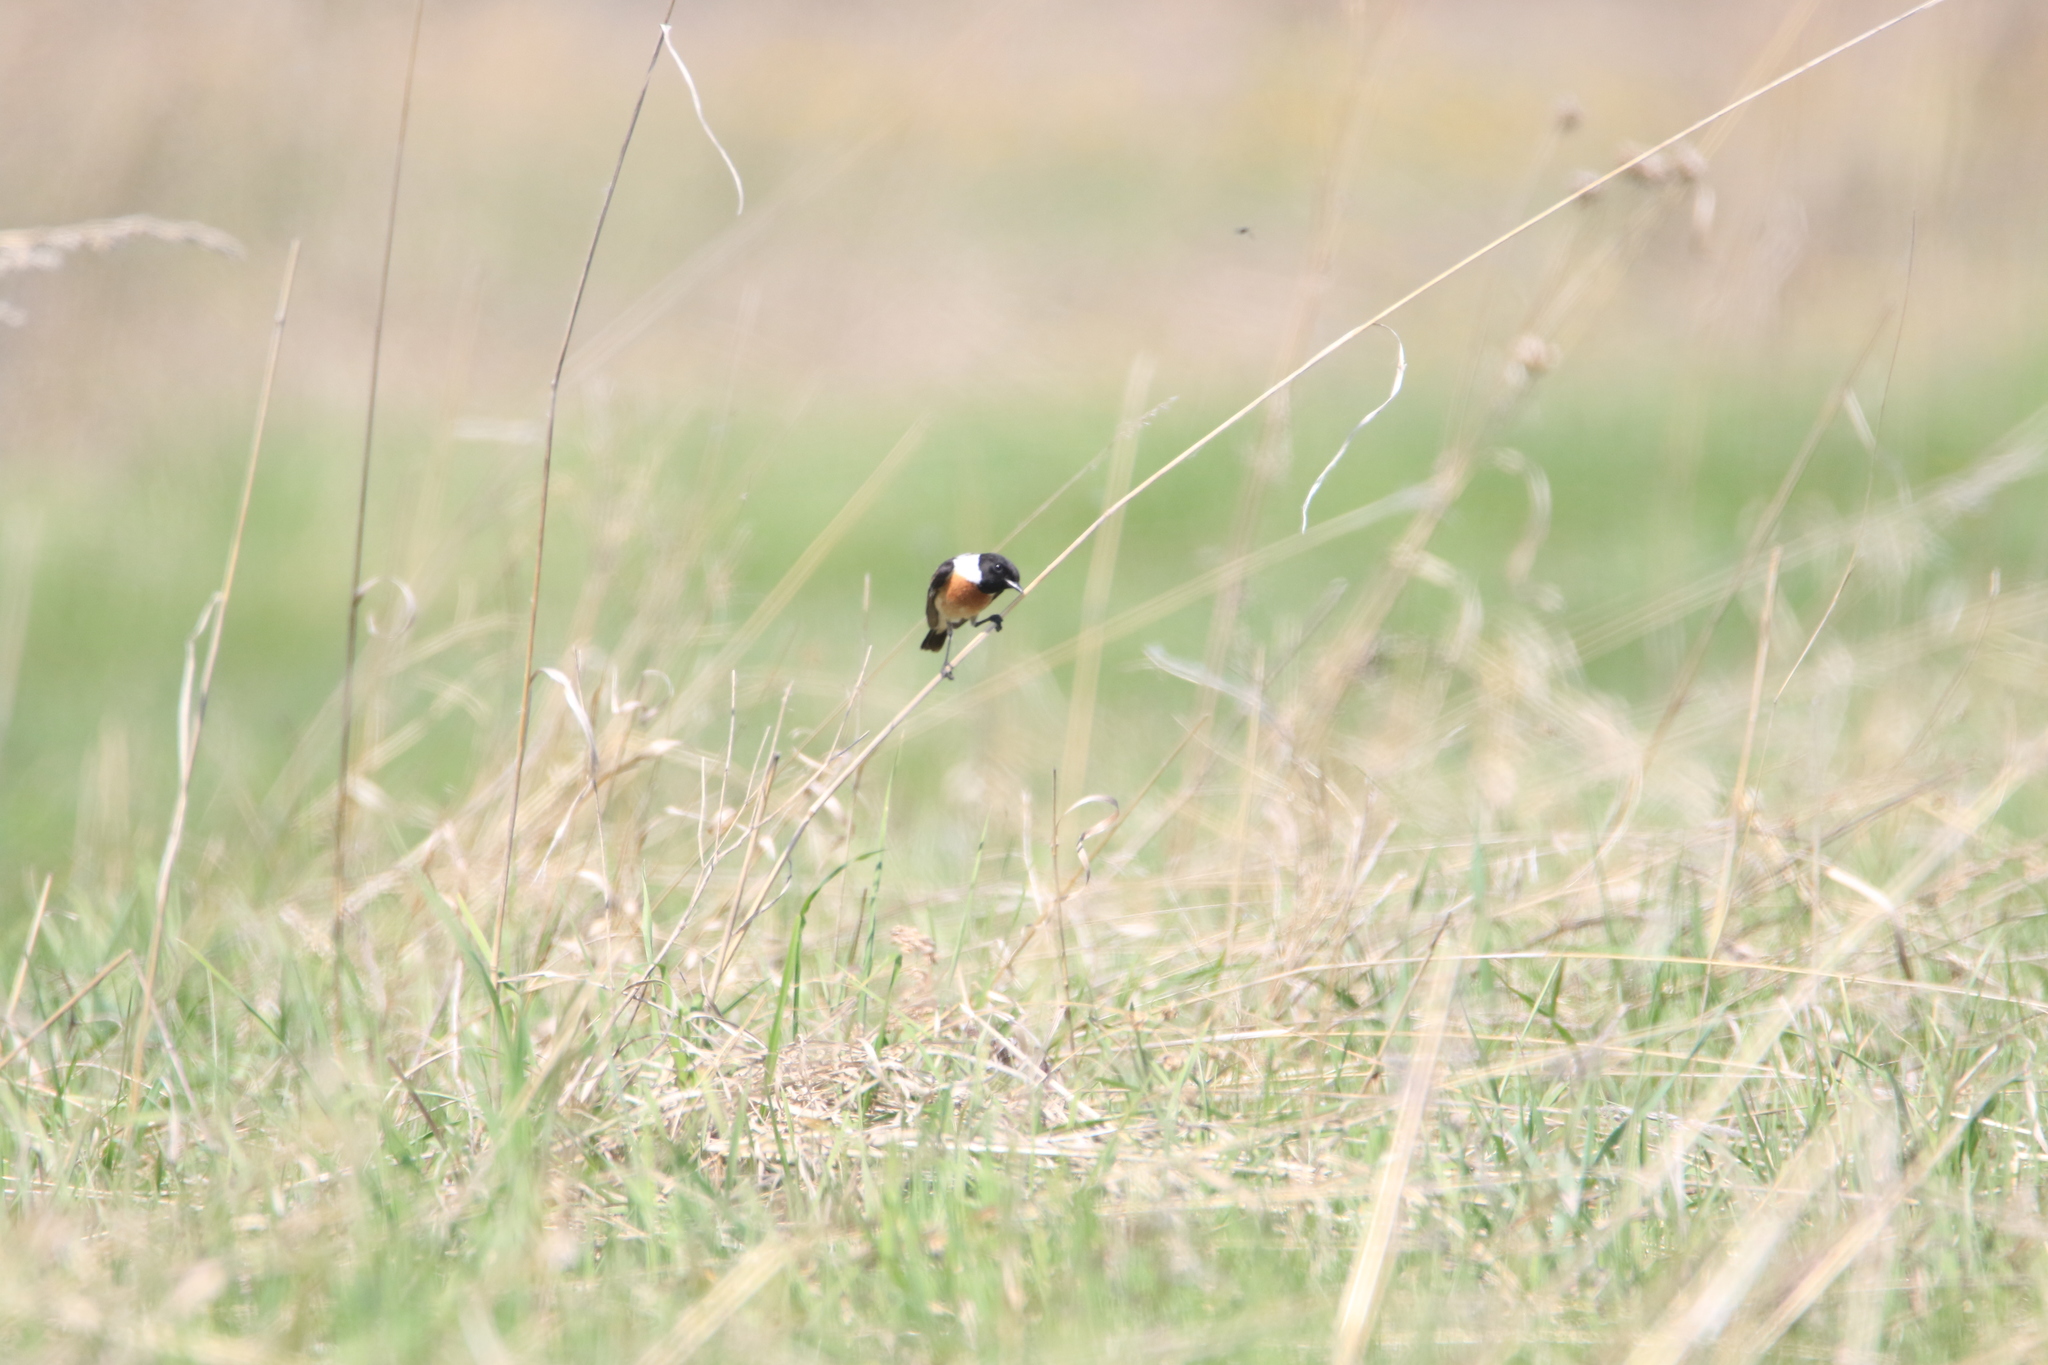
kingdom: Animalia
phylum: Chordata
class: Aves
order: Passeriformes
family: Muscicapidae
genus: Saxicola
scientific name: Saxicola maurus
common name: Siberian stonechat
